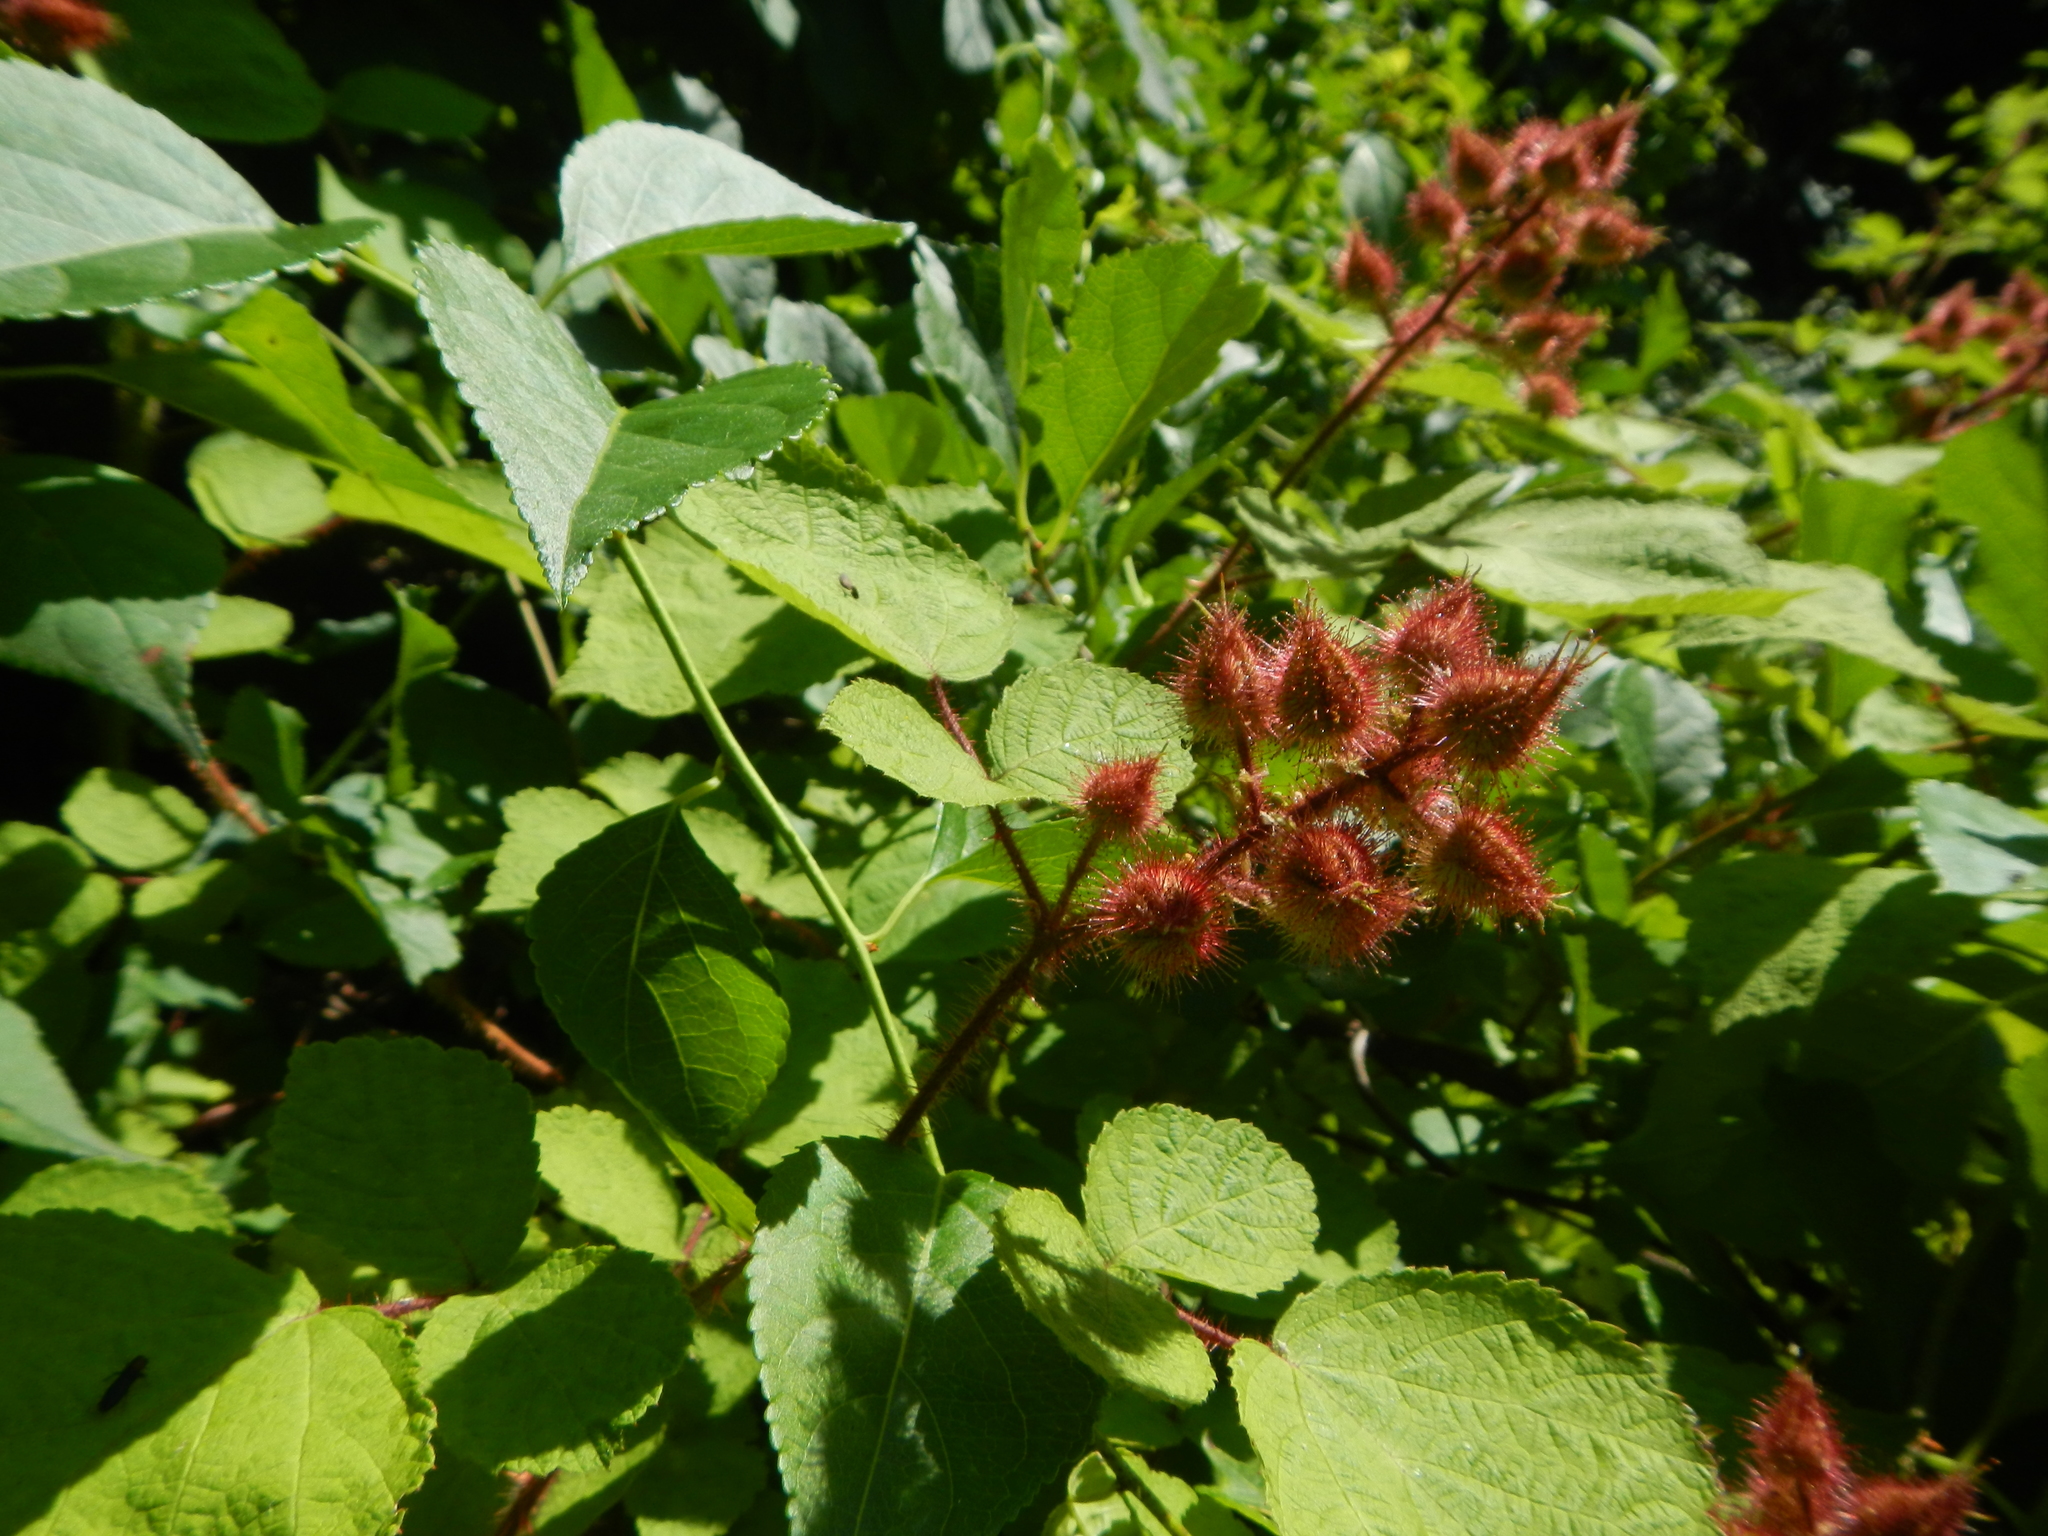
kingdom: Plantae
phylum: Tracheophyta
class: Magnoliopsida
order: Rosales
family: Rosaceae
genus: Rubus
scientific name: Rubus phoenicolasius
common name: Japanese wineberry
